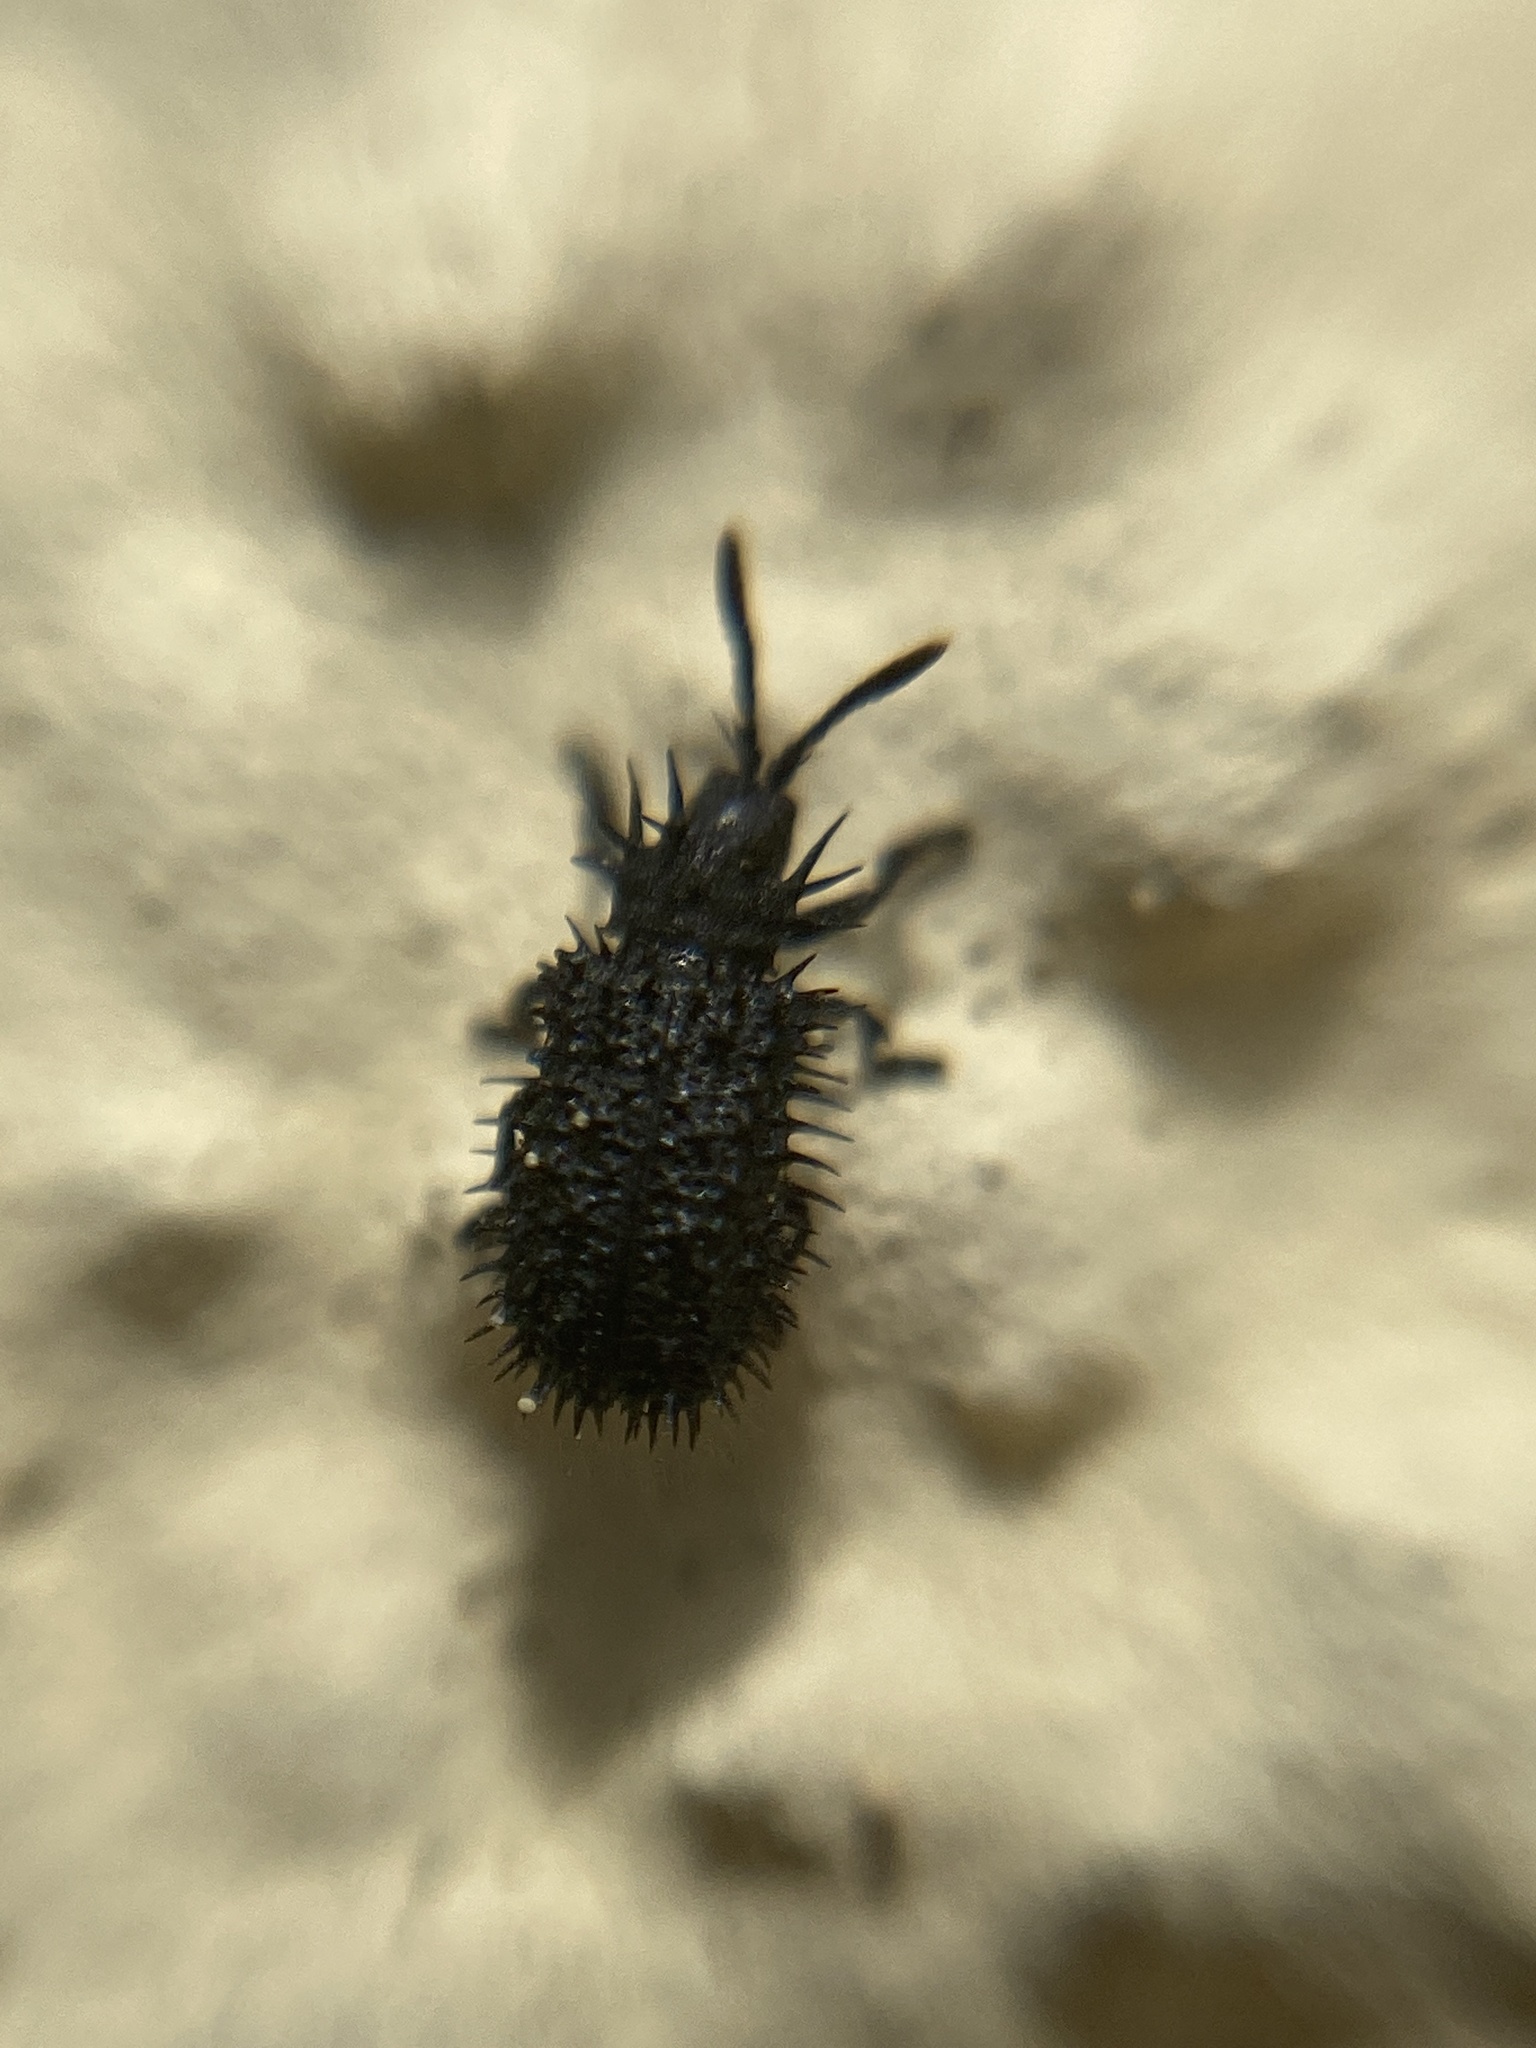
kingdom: Animalia
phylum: Arthropoda
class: Insecta
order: Coleoptera
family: Chrysomelidae
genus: Hispa
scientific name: Hispa atra
